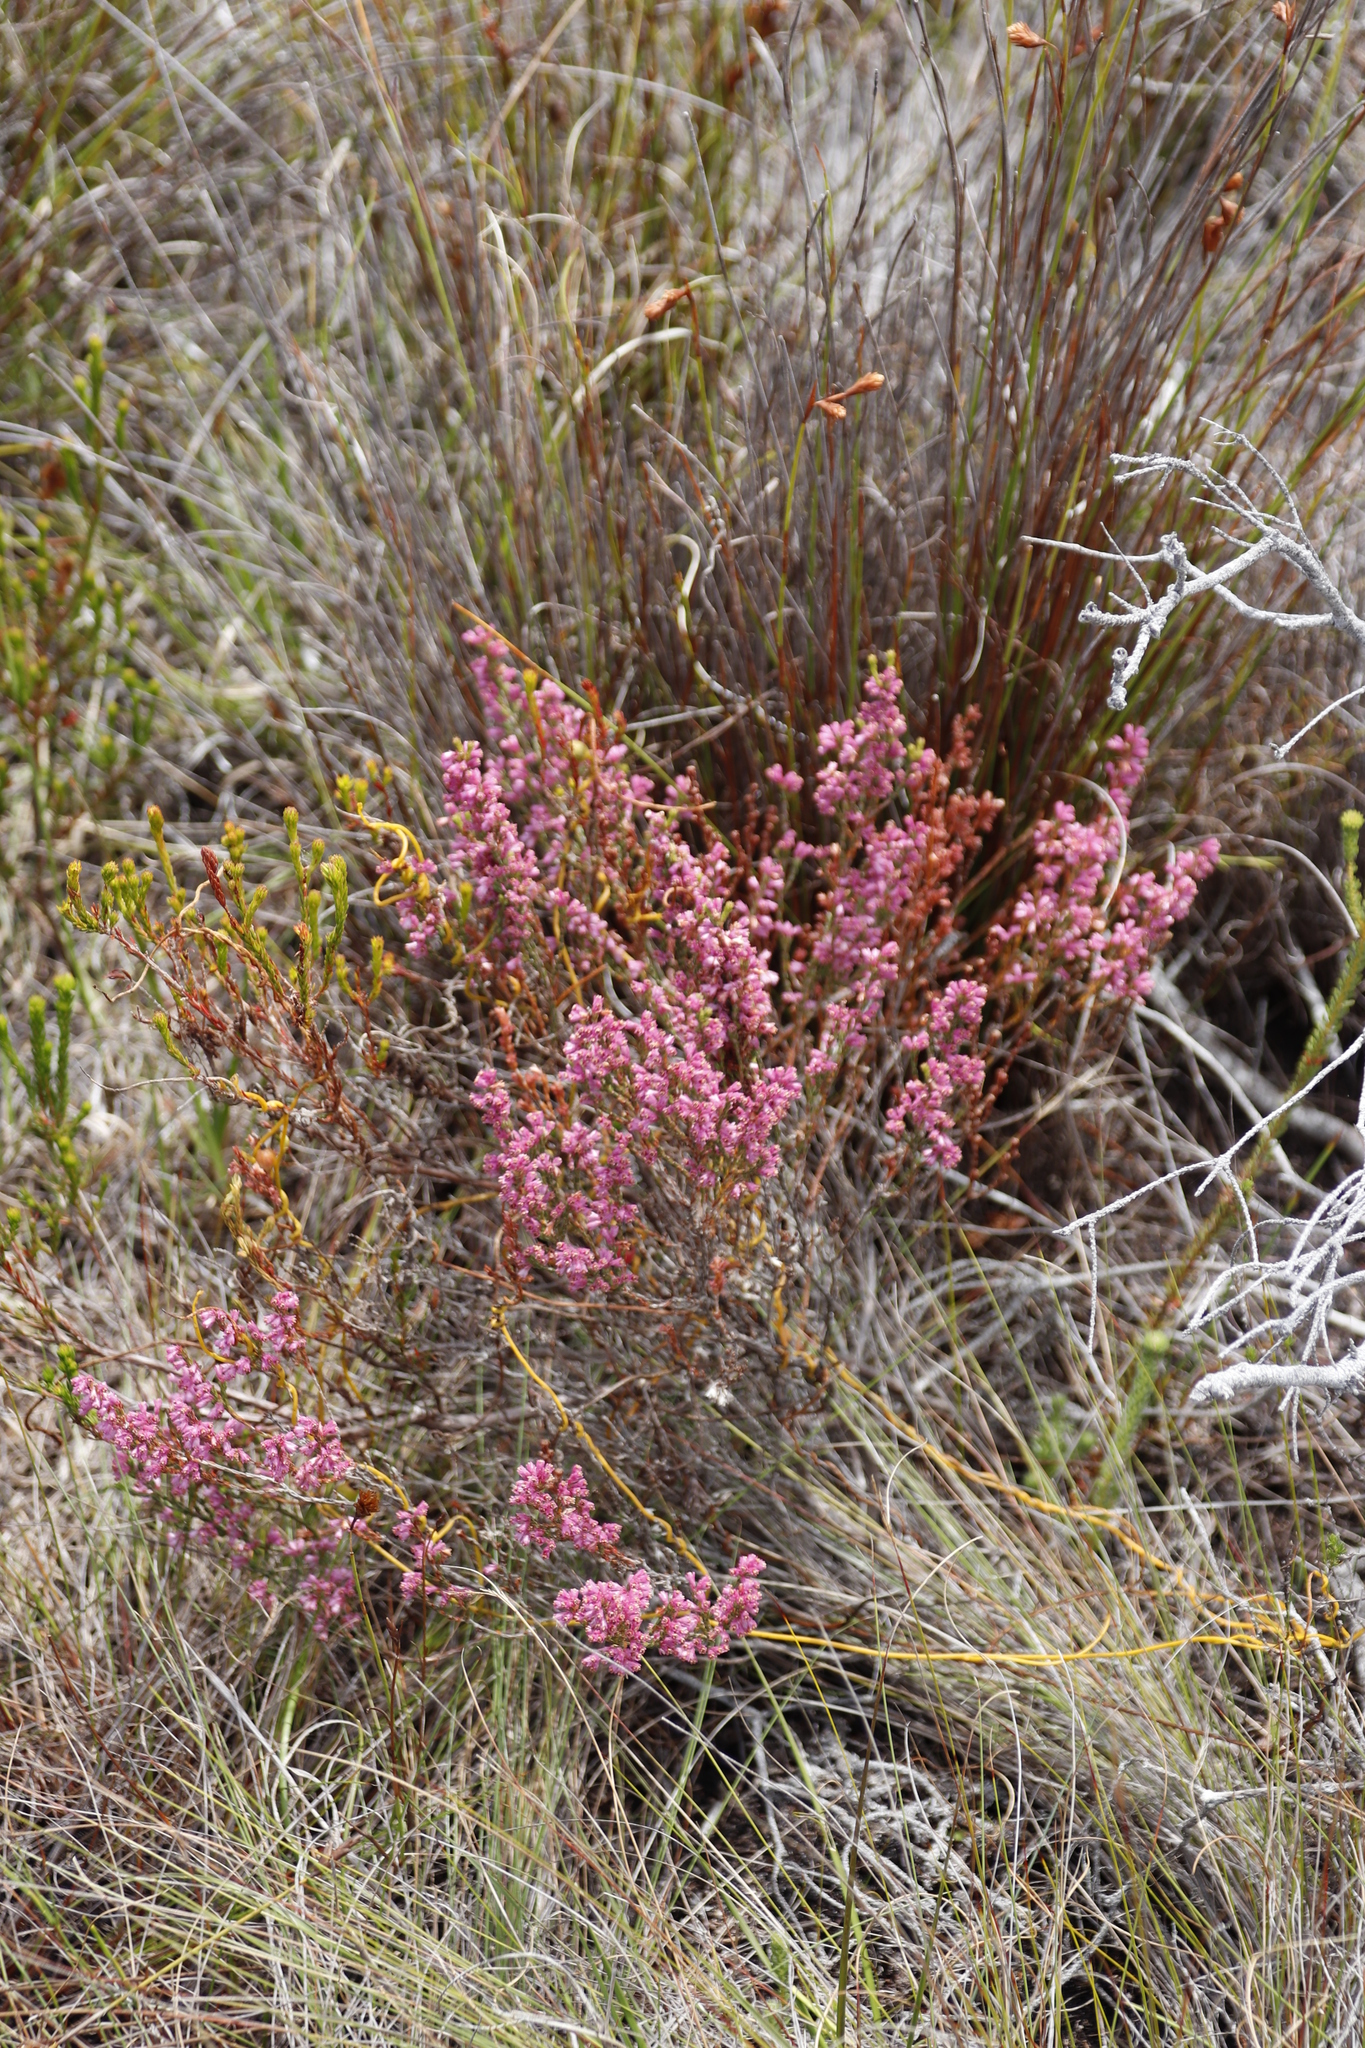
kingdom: Plantae
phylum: Tracheophyta
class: Magnoliopsida
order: Ericales
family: Ericaceae
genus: Erica
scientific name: Erica gnaphaloides
